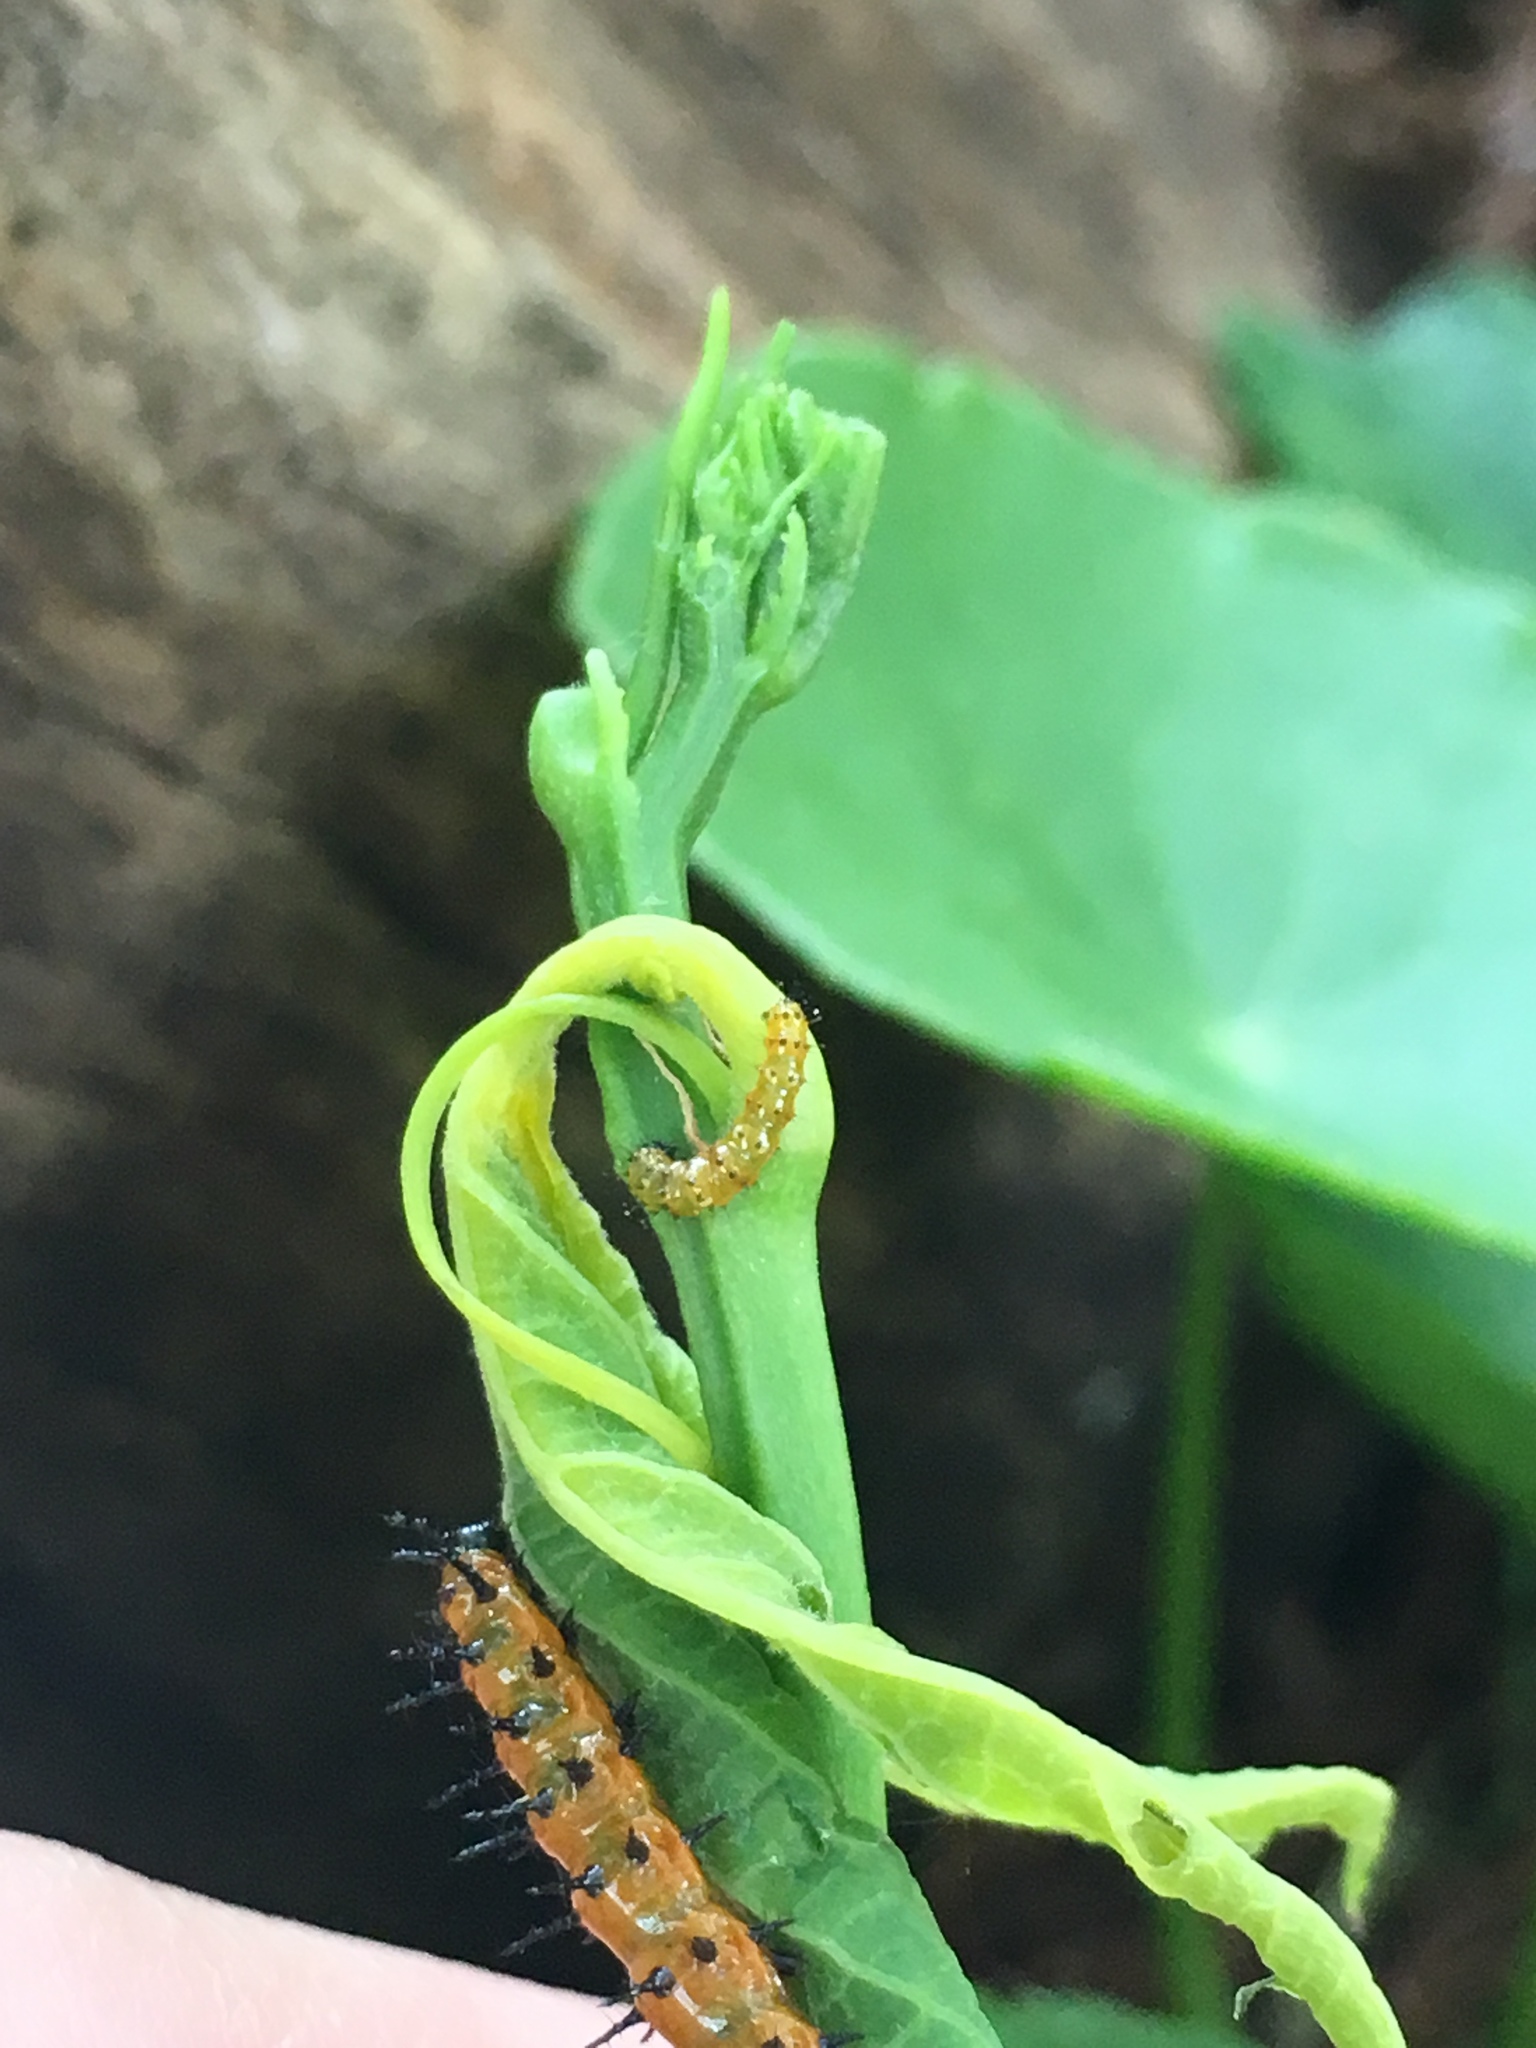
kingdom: Animalia
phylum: Arthropoda
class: Insecta
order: Lepidoptera
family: Nymphalidae
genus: Dione
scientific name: Dione vanillae
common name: Gulf fritillary
